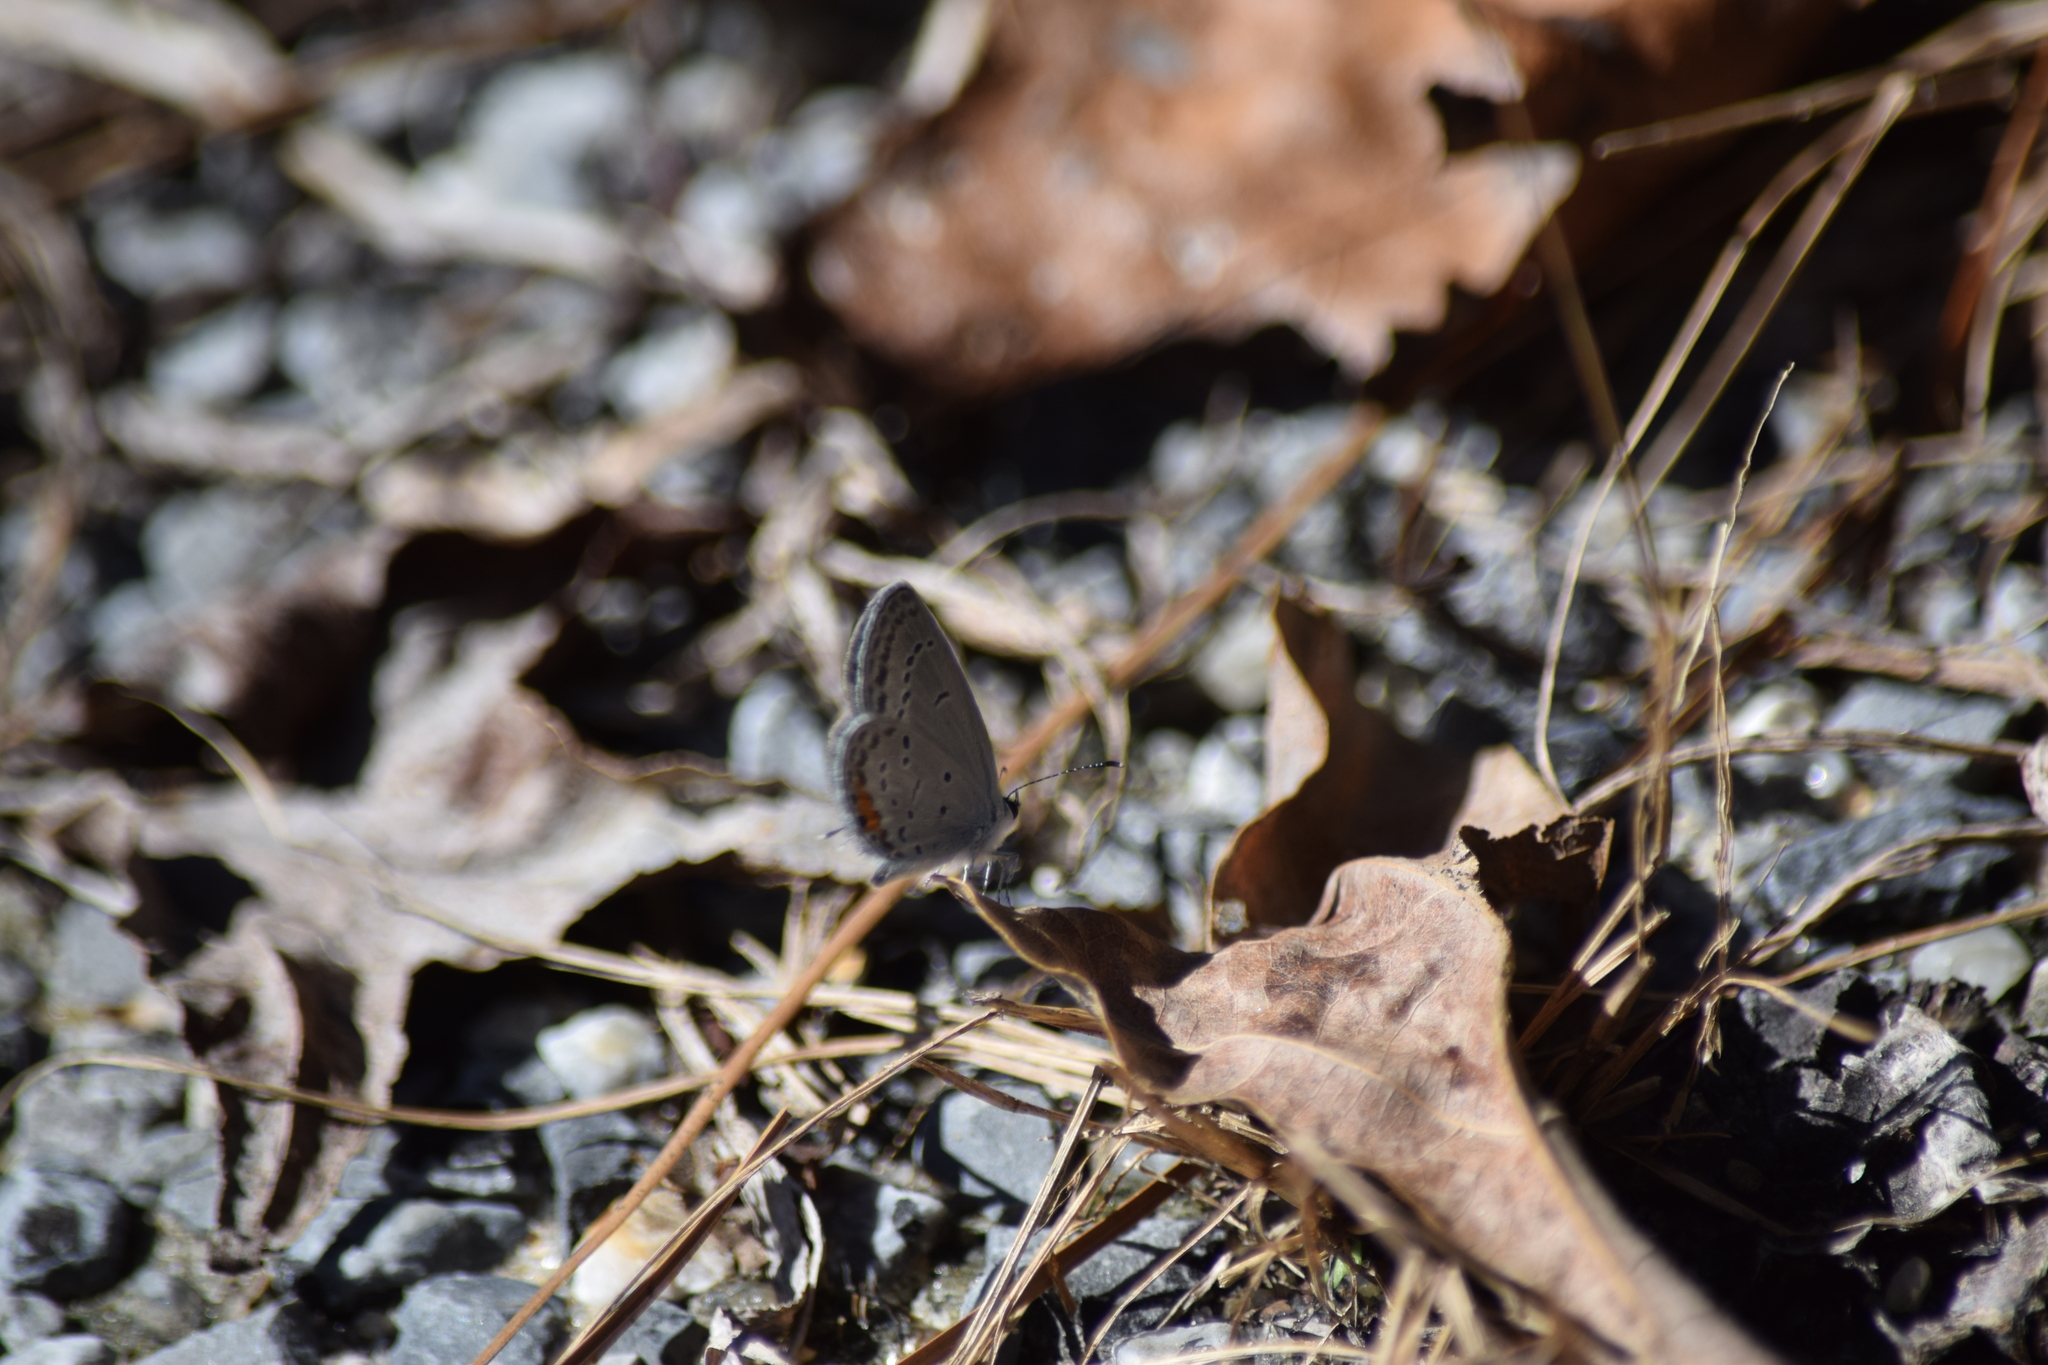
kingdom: Animalia
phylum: Arthropoda
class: Insecta
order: Lepidoptera
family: Lycaenidae
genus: Elkalyce
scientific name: Elkalyce comyntas
